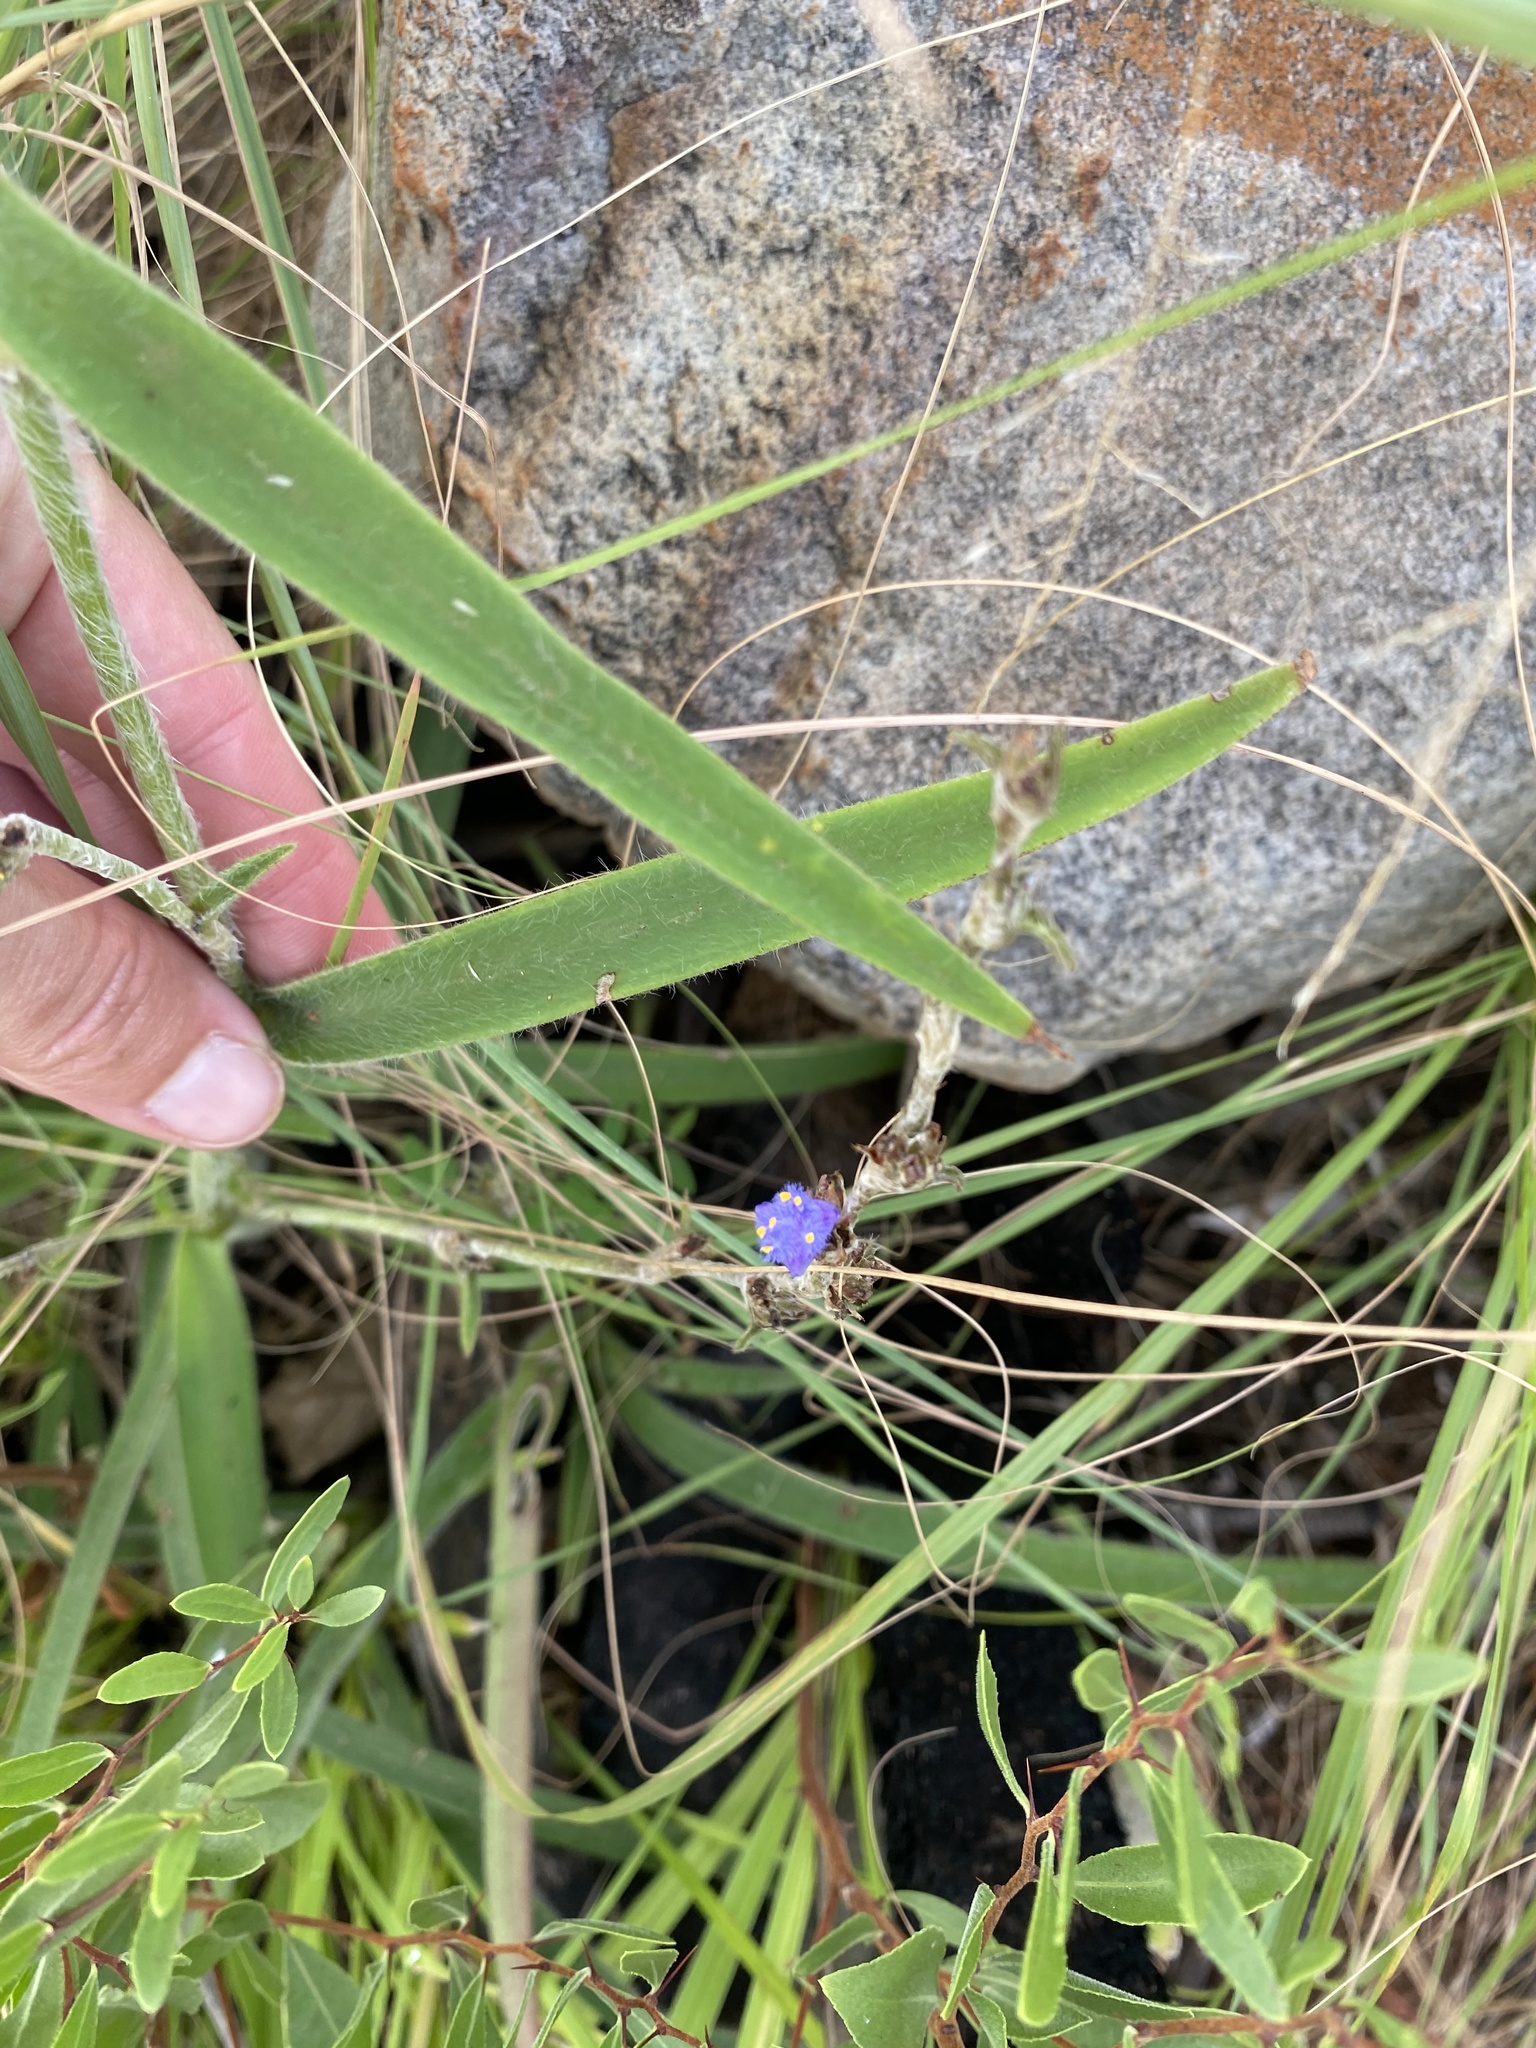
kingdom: Plantae
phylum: Tracheophyta
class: Liliopsida
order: Commelinales
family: Commelinaceae
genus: Cyanotis
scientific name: Cyanotis speciosa
